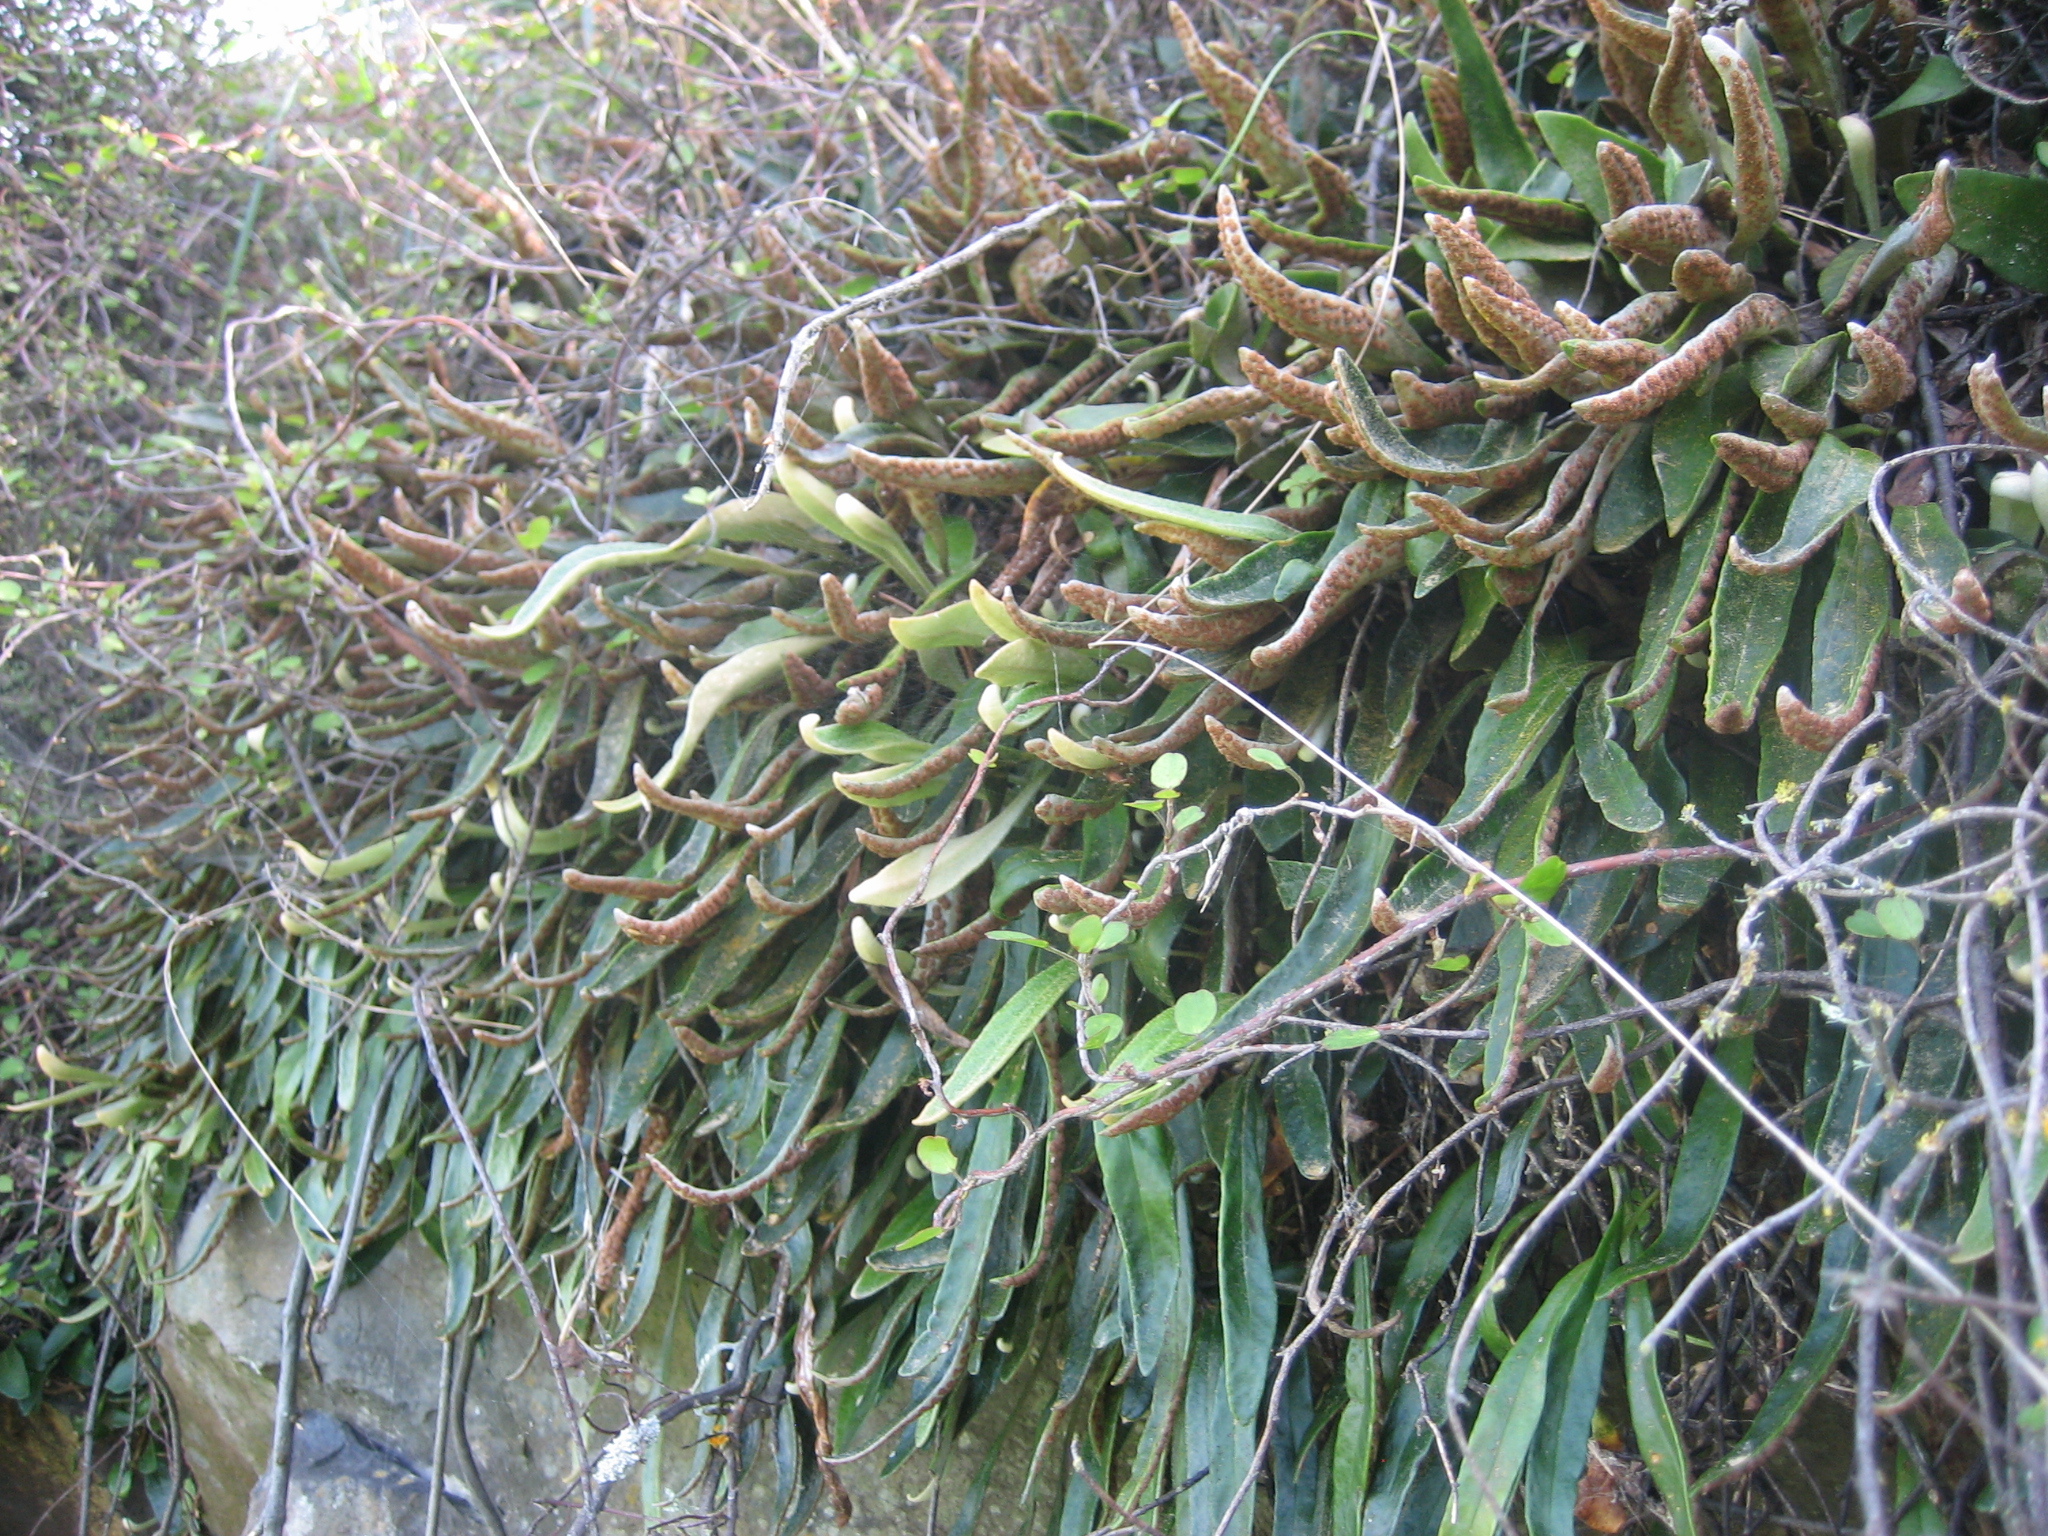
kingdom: Plantae
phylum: Tracheophyta
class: Polypodiopsida
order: Polypodiales
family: Polypodiaceae
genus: Pyrrosia
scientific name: Pyrrosia eleagnifolia
